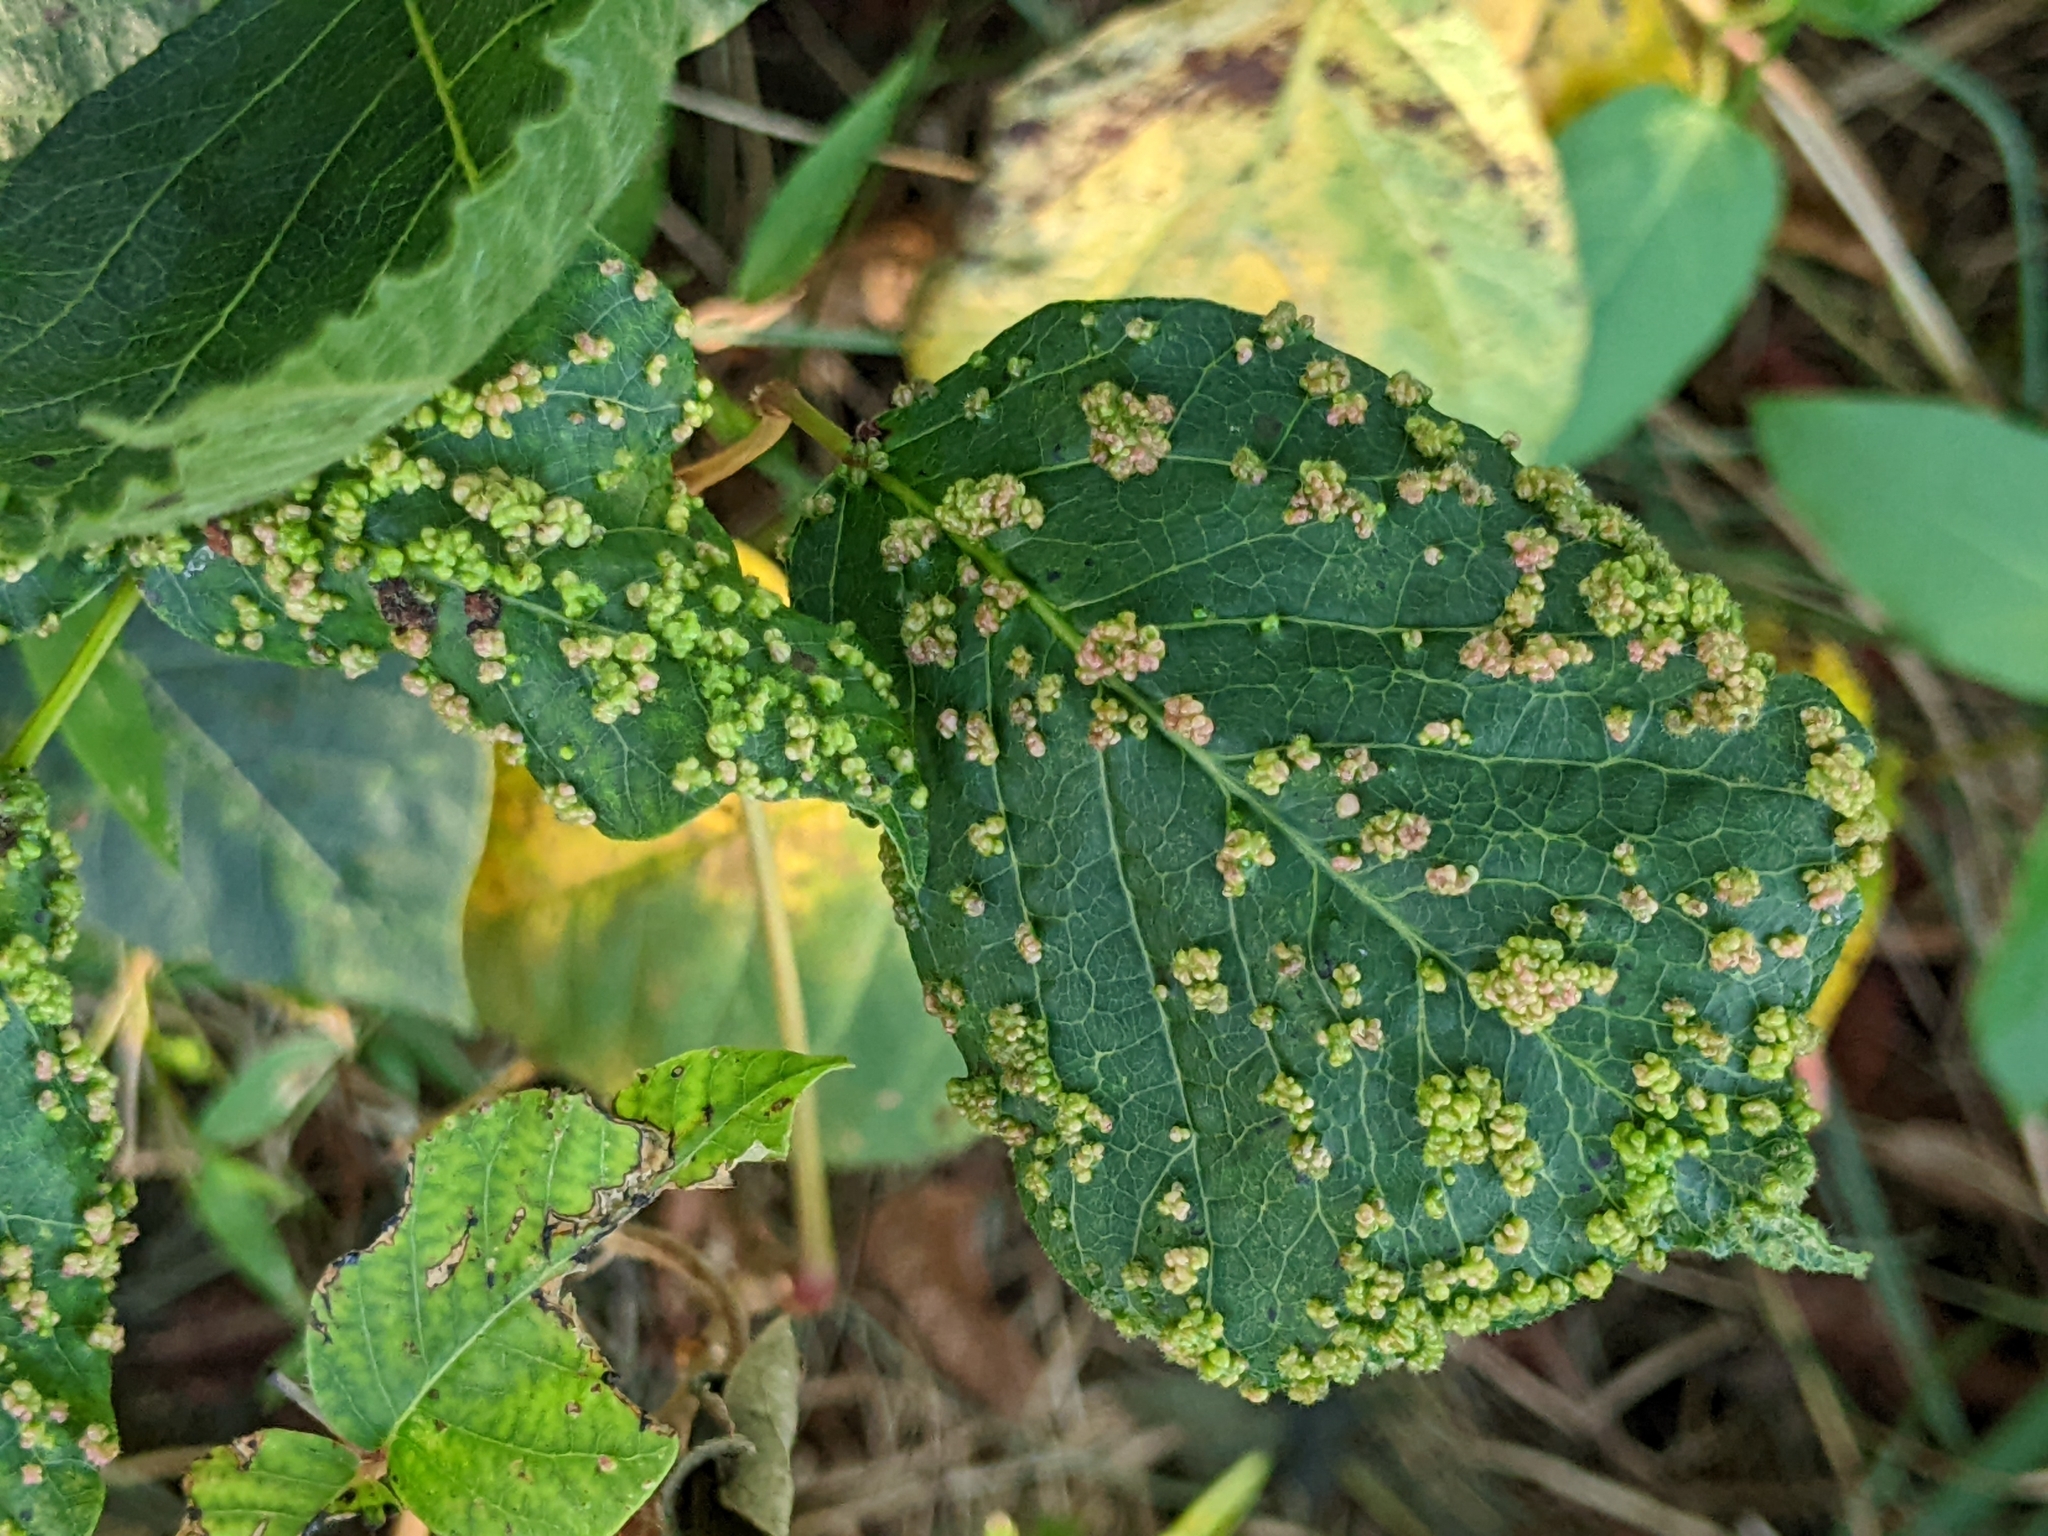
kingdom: Animalia
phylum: Arthropoda
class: Arachnida
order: Trombidiformes
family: Eriophyidae
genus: Aculops
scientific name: Aculops
